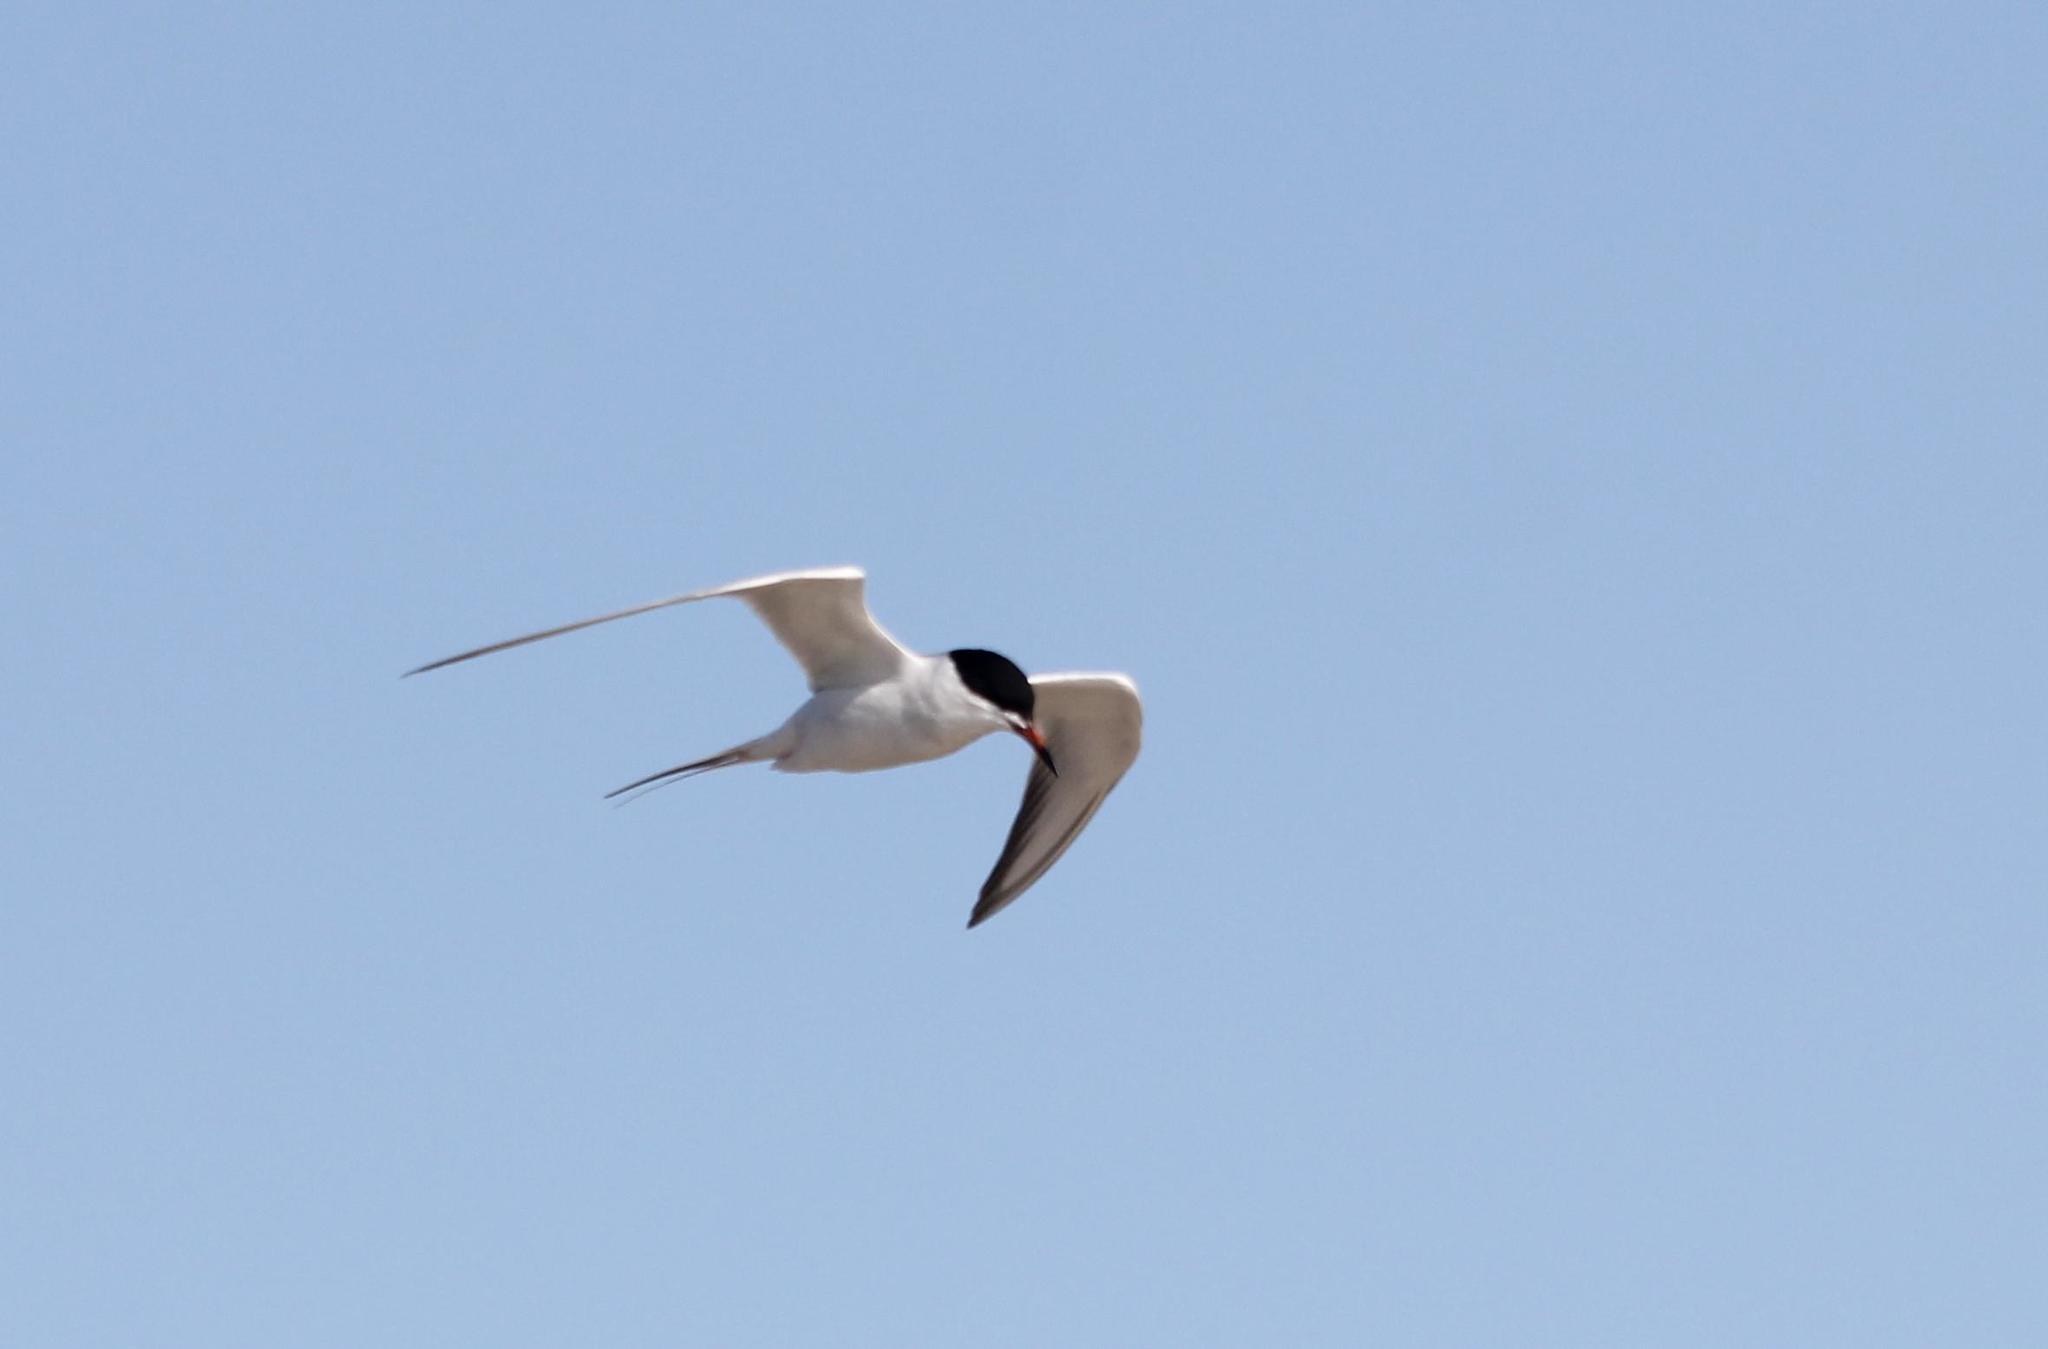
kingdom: Animalia
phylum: Chordata
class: Aves
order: Charadriiformes
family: Laridae
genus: Sterna
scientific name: Sterna forsteri
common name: Forster's tern
